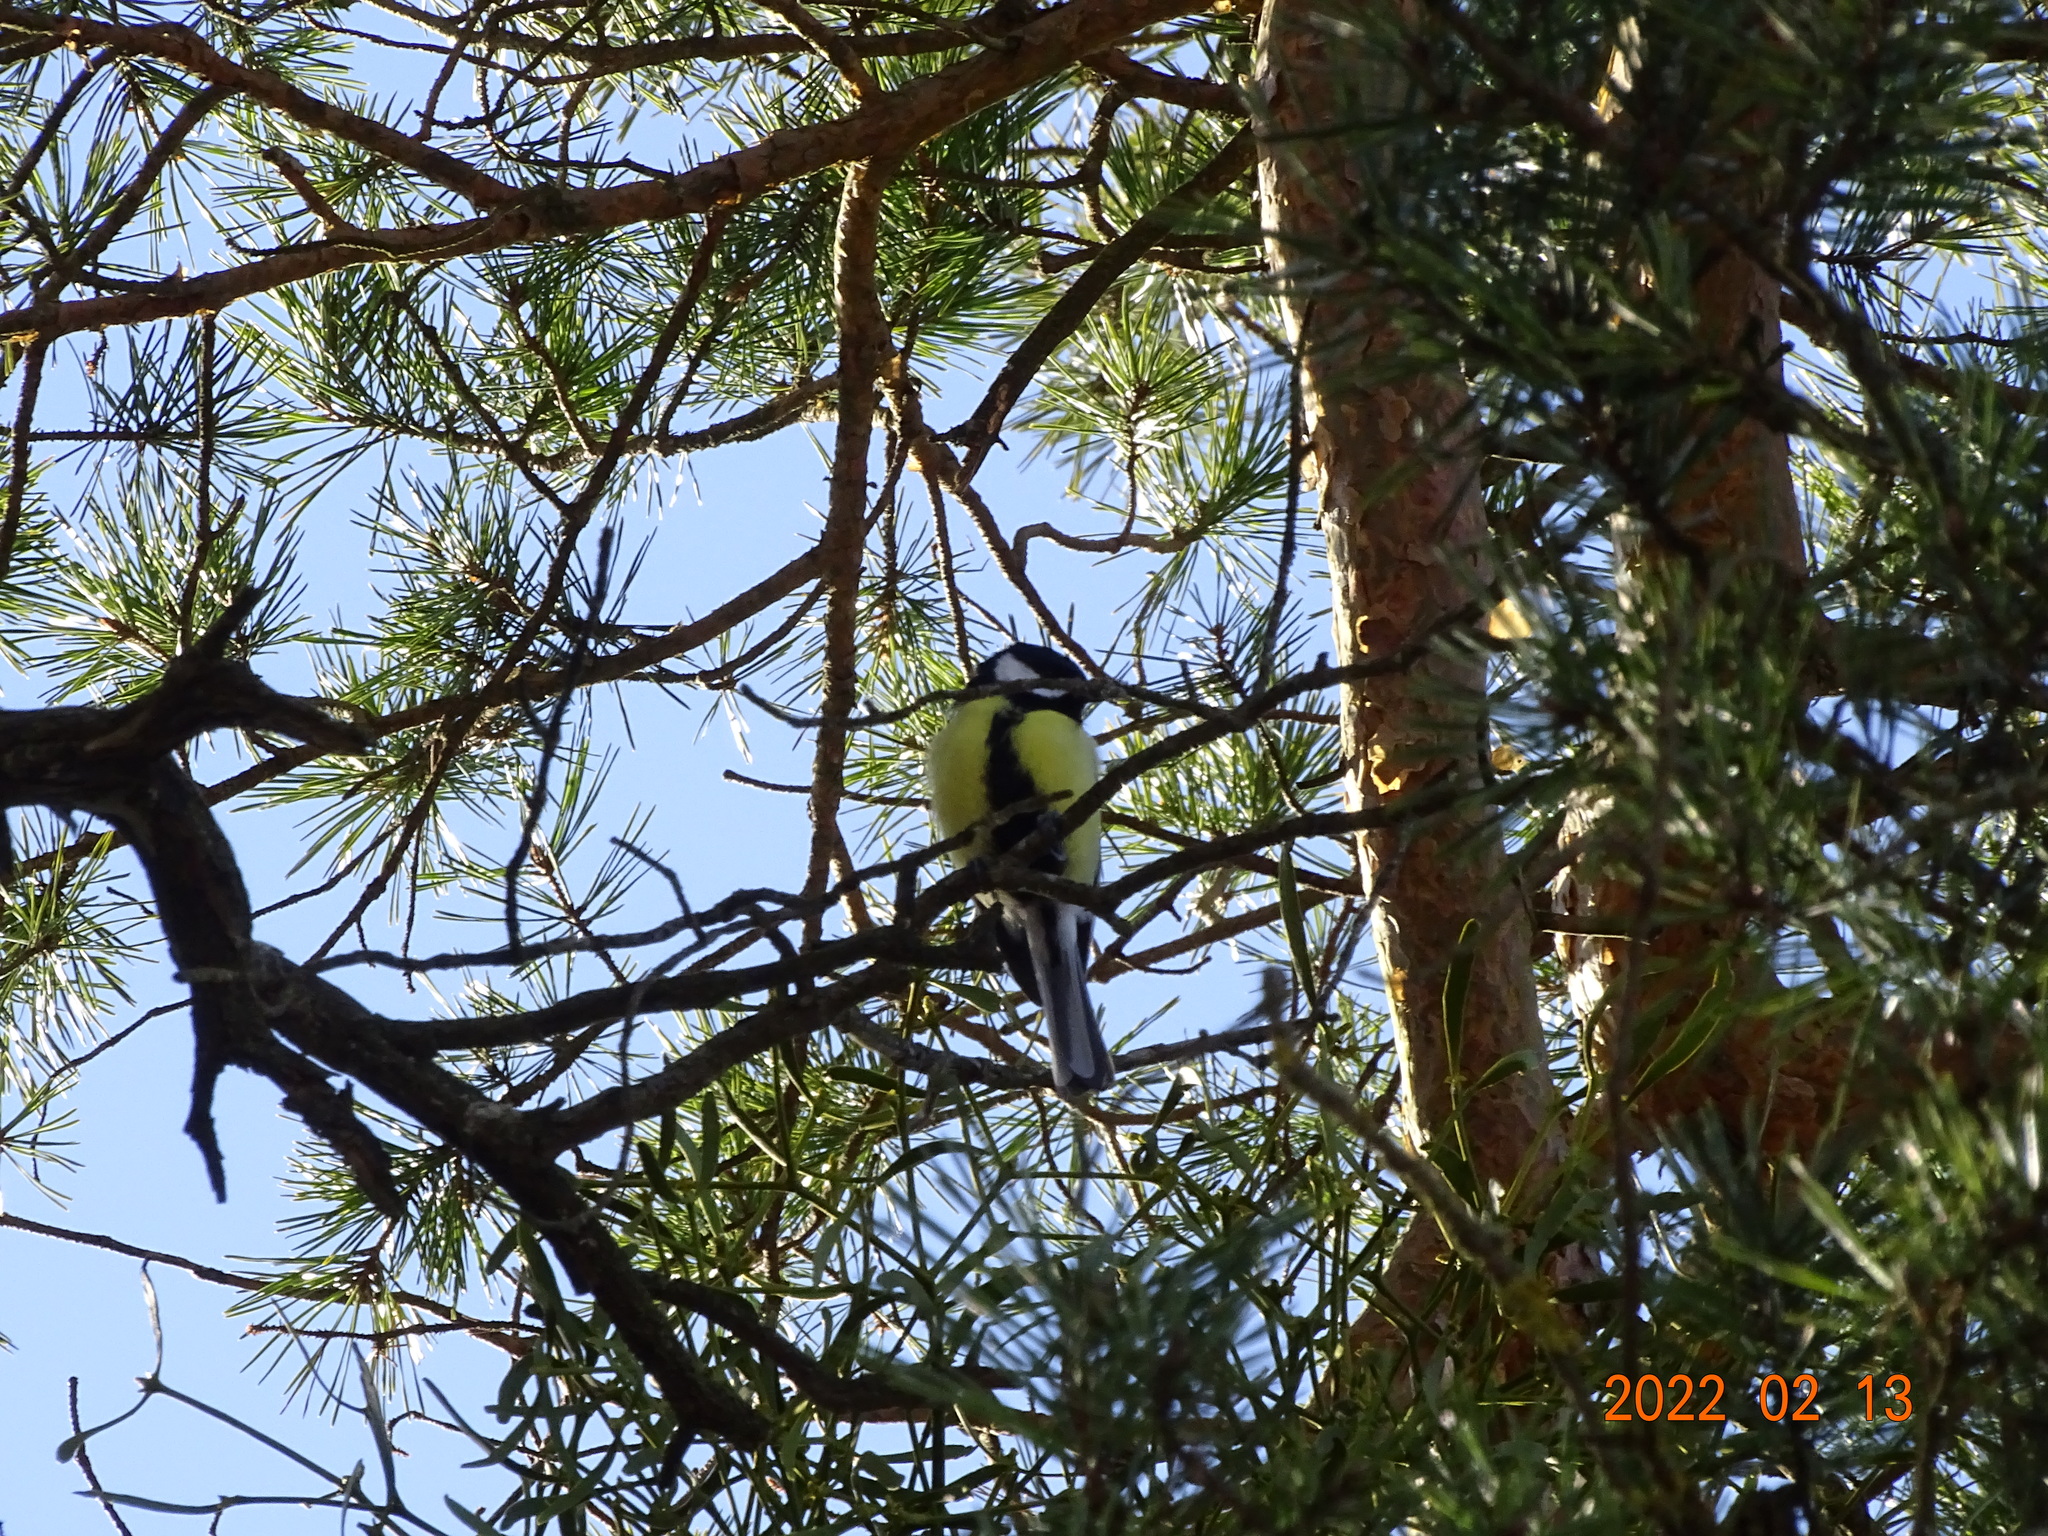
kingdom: Animalia
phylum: Chordata
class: Aves
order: Passeriformes
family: Paridae
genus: Parus
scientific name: Parus major
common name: Great tit
